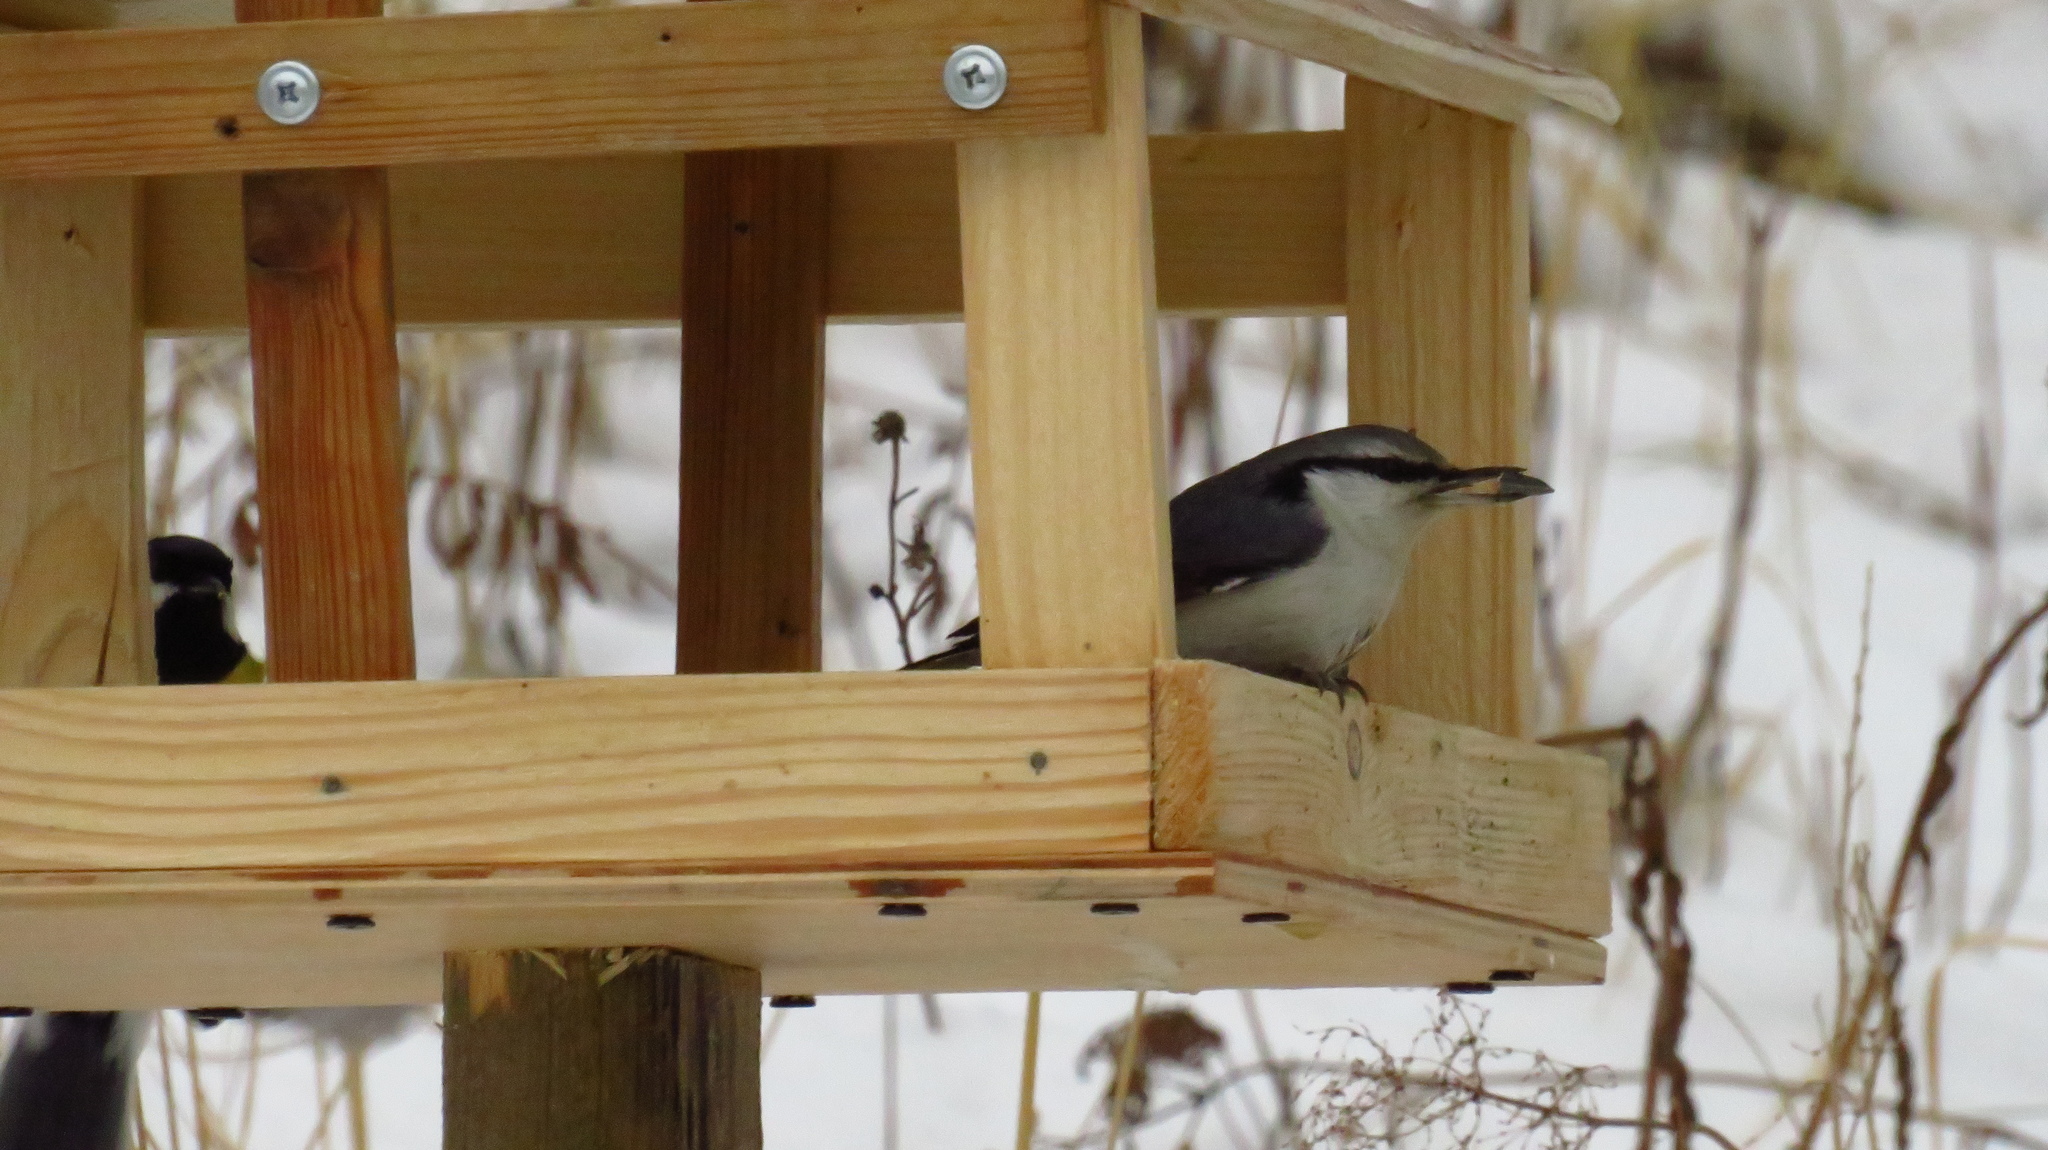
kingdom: Animalia
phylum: Chordata
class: Aves
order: Passeriformes
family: Sittidae
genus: Sitta
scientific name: Sitta europaea
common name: Eurasian nuthatch
